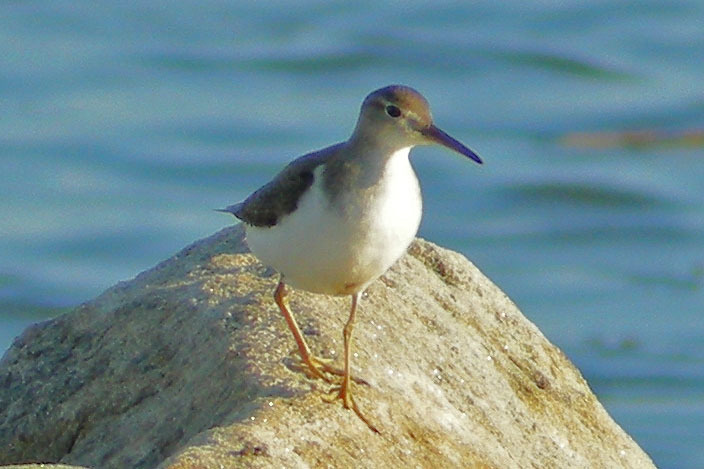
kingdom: Animalia
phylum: Chordata
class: Aves
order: Charadriiformes
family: Scolopacidae
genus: Actitis
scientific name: Actitis macularius
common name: Spotted sandpiper
